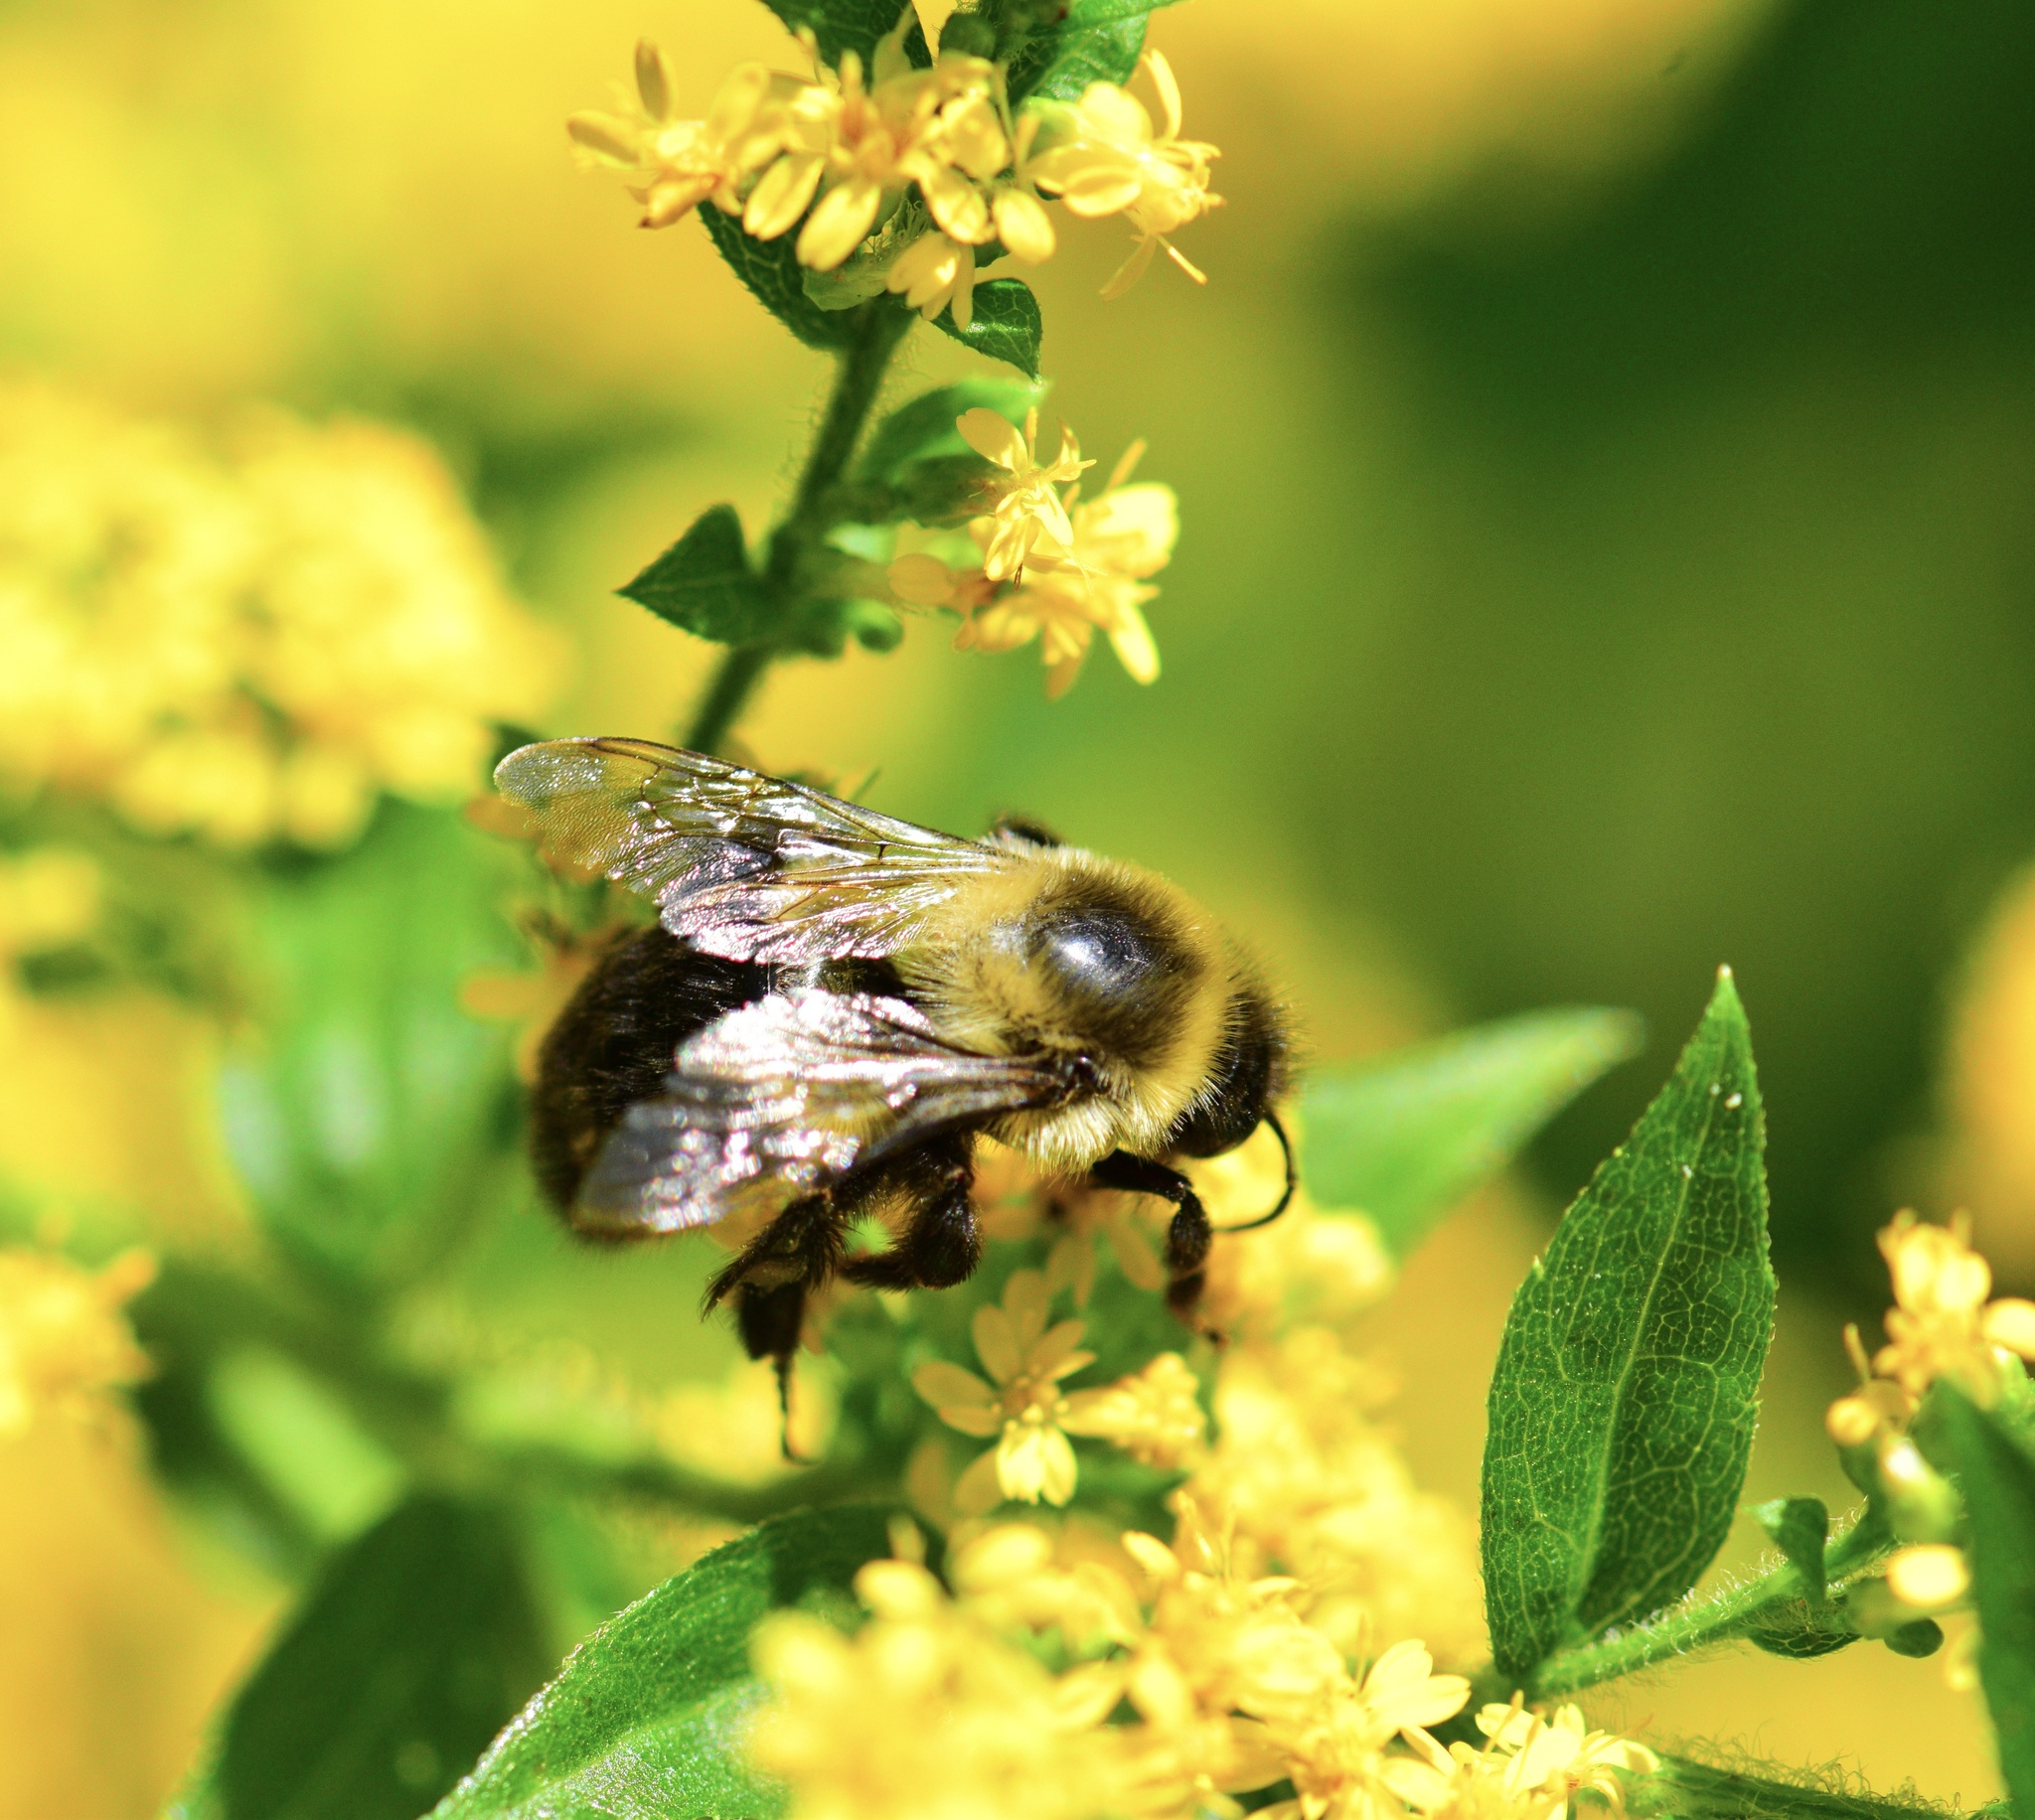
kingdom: Animalia
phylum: Arthropoda
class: Insecta
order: Hymenoptera
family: Apidae
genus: Bombus
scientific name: Bombus impatiens
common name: Common eastern bumble bee
